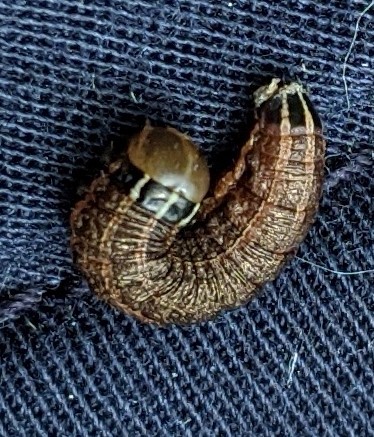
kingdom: Animalia
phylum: Arthropoda
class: Insecta
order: Lepidoptera
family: Noctuidae
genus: Nephelodes
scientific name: Nephelodes minians
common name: Bronzed cutworm
